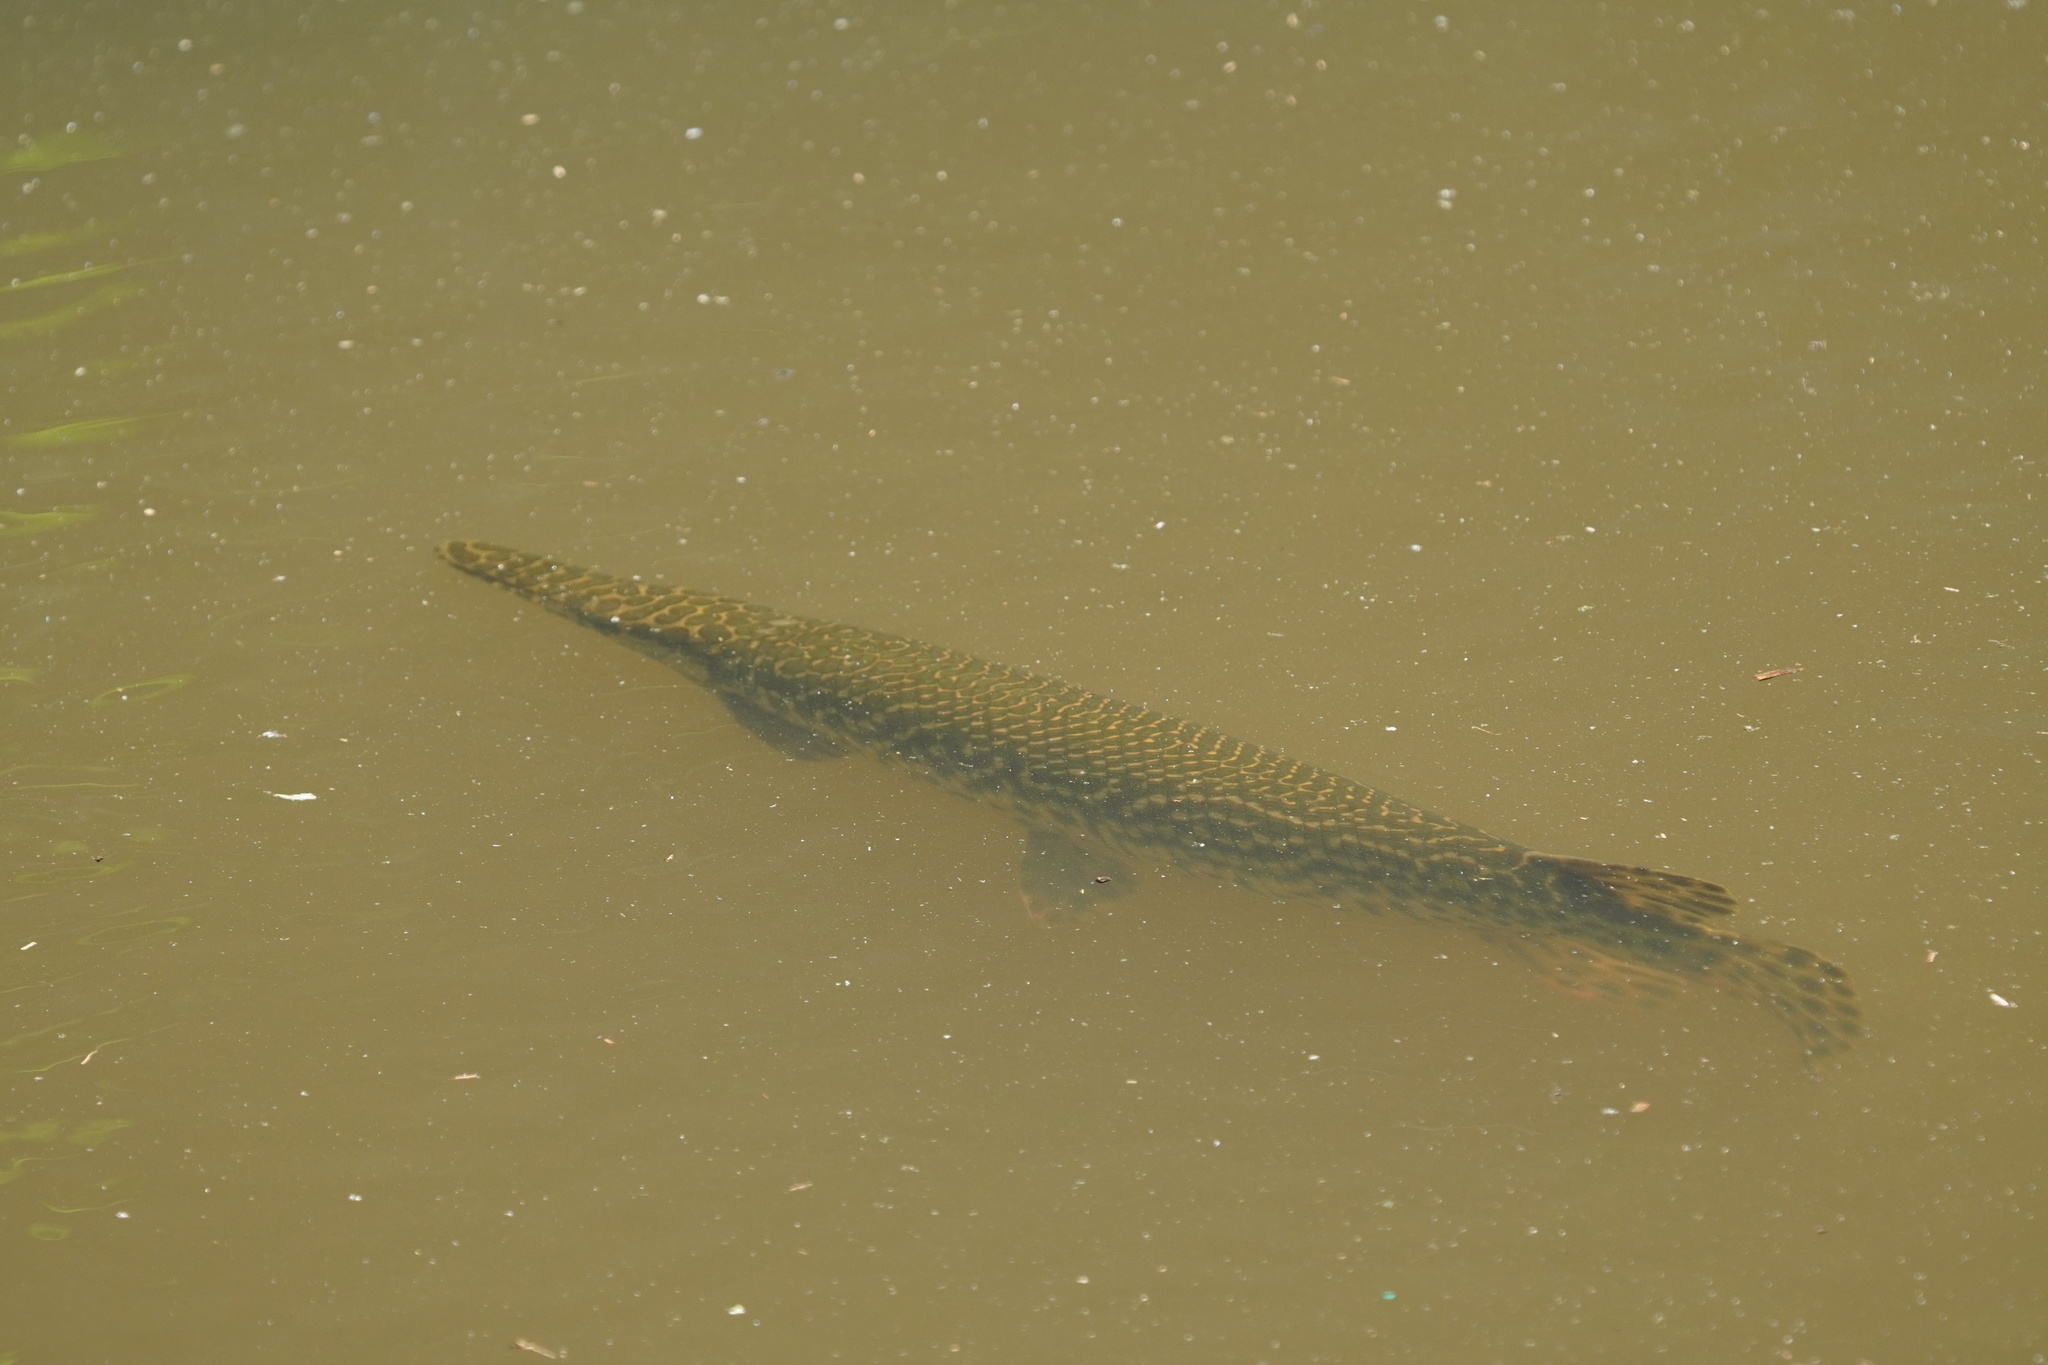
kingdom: Animalia
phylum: Chordata
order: Lepisosteiformes
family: Lepisosteidae
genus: Lepisosteus
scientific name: Lepisosteus oculatus
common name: Spotted gar
